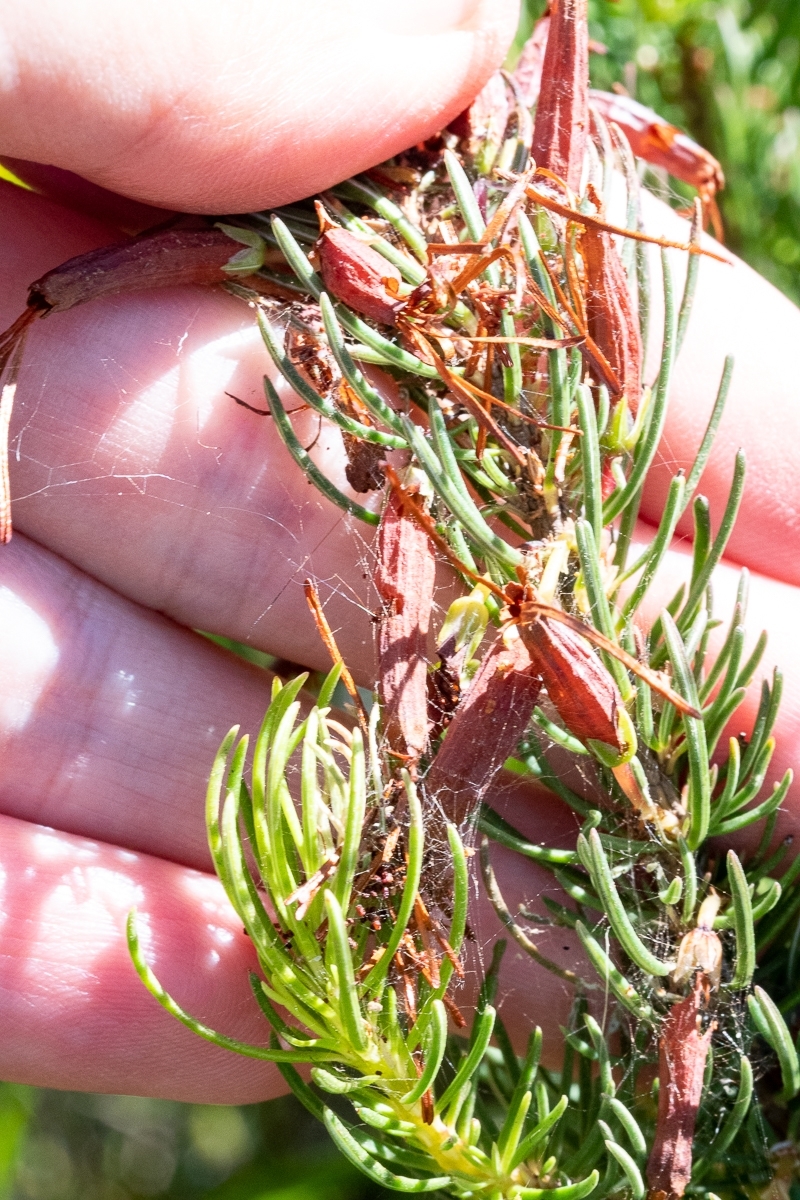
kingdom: Plantae
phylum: Tracheophyta
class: Magnoliopsida
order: Ericales
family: Ericaceae
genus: Erica
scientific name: Erica plukenetii
